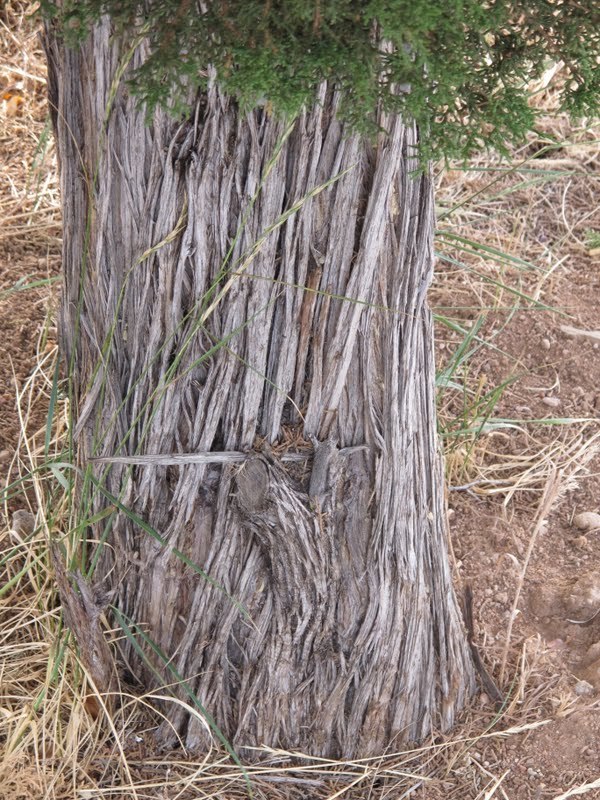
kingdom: Plantae
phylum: Tracheophyta
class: Pinopsida
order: Pinales
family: Cupressaceae
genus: Juniperus
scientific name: Juniperus
